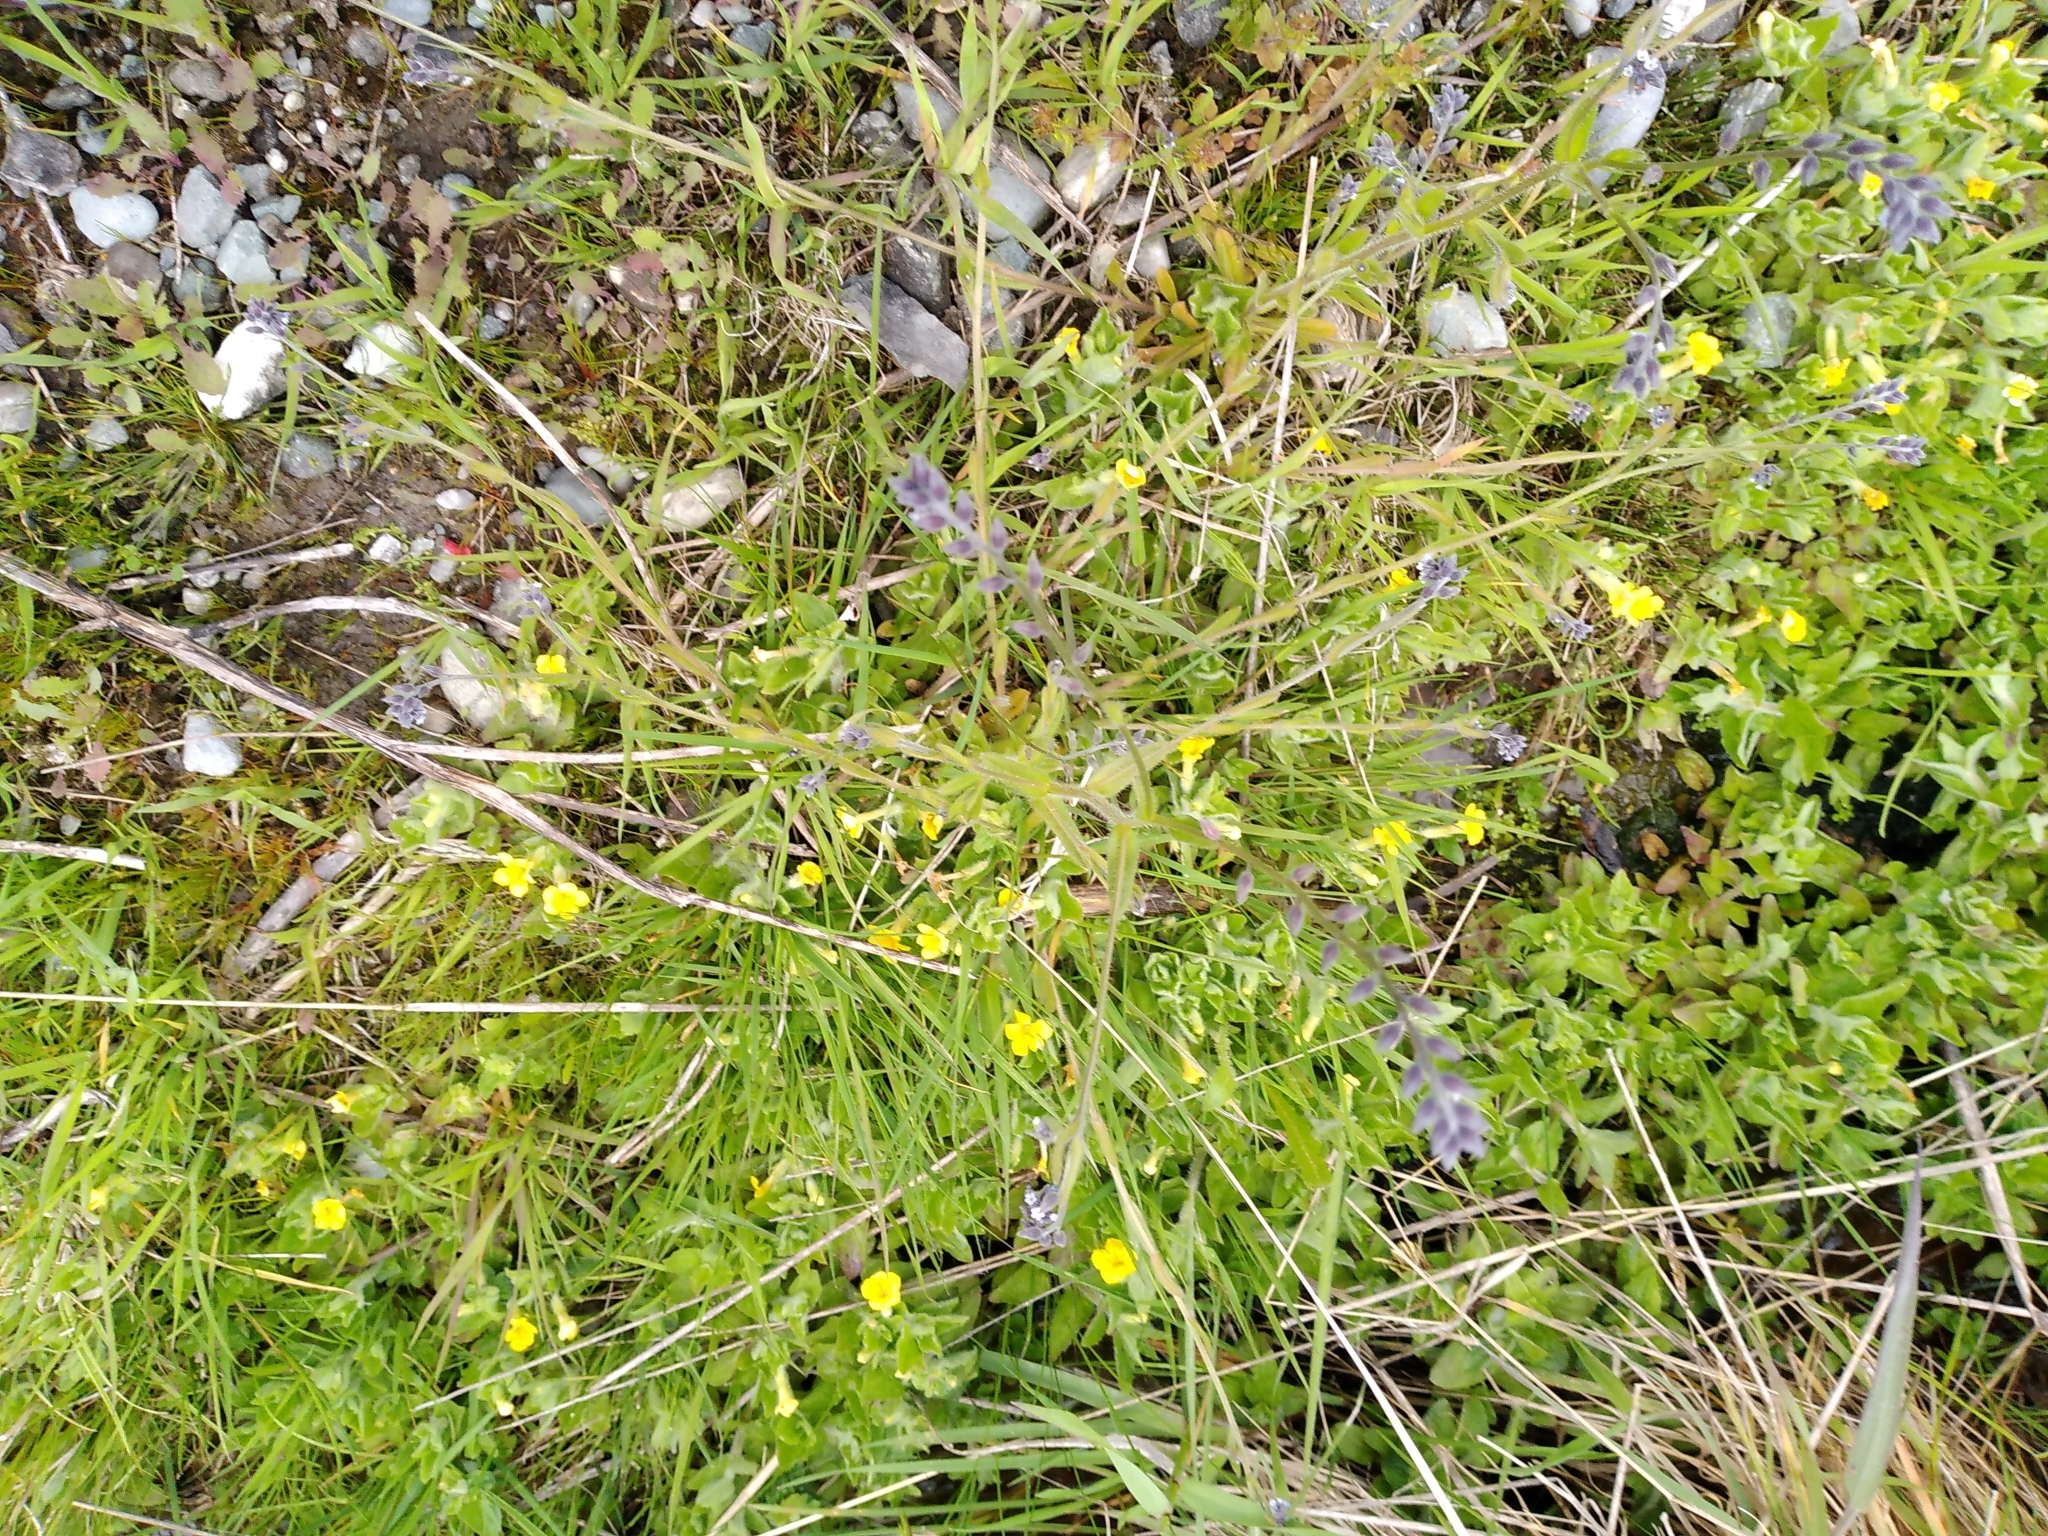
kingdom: Plantae
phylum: Tracheophyta
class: Magnoliopsida
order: Boraginales
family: Boraginaceae
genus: Myosotis
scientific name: Myosotis discolor
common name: Changing forget-me-not
